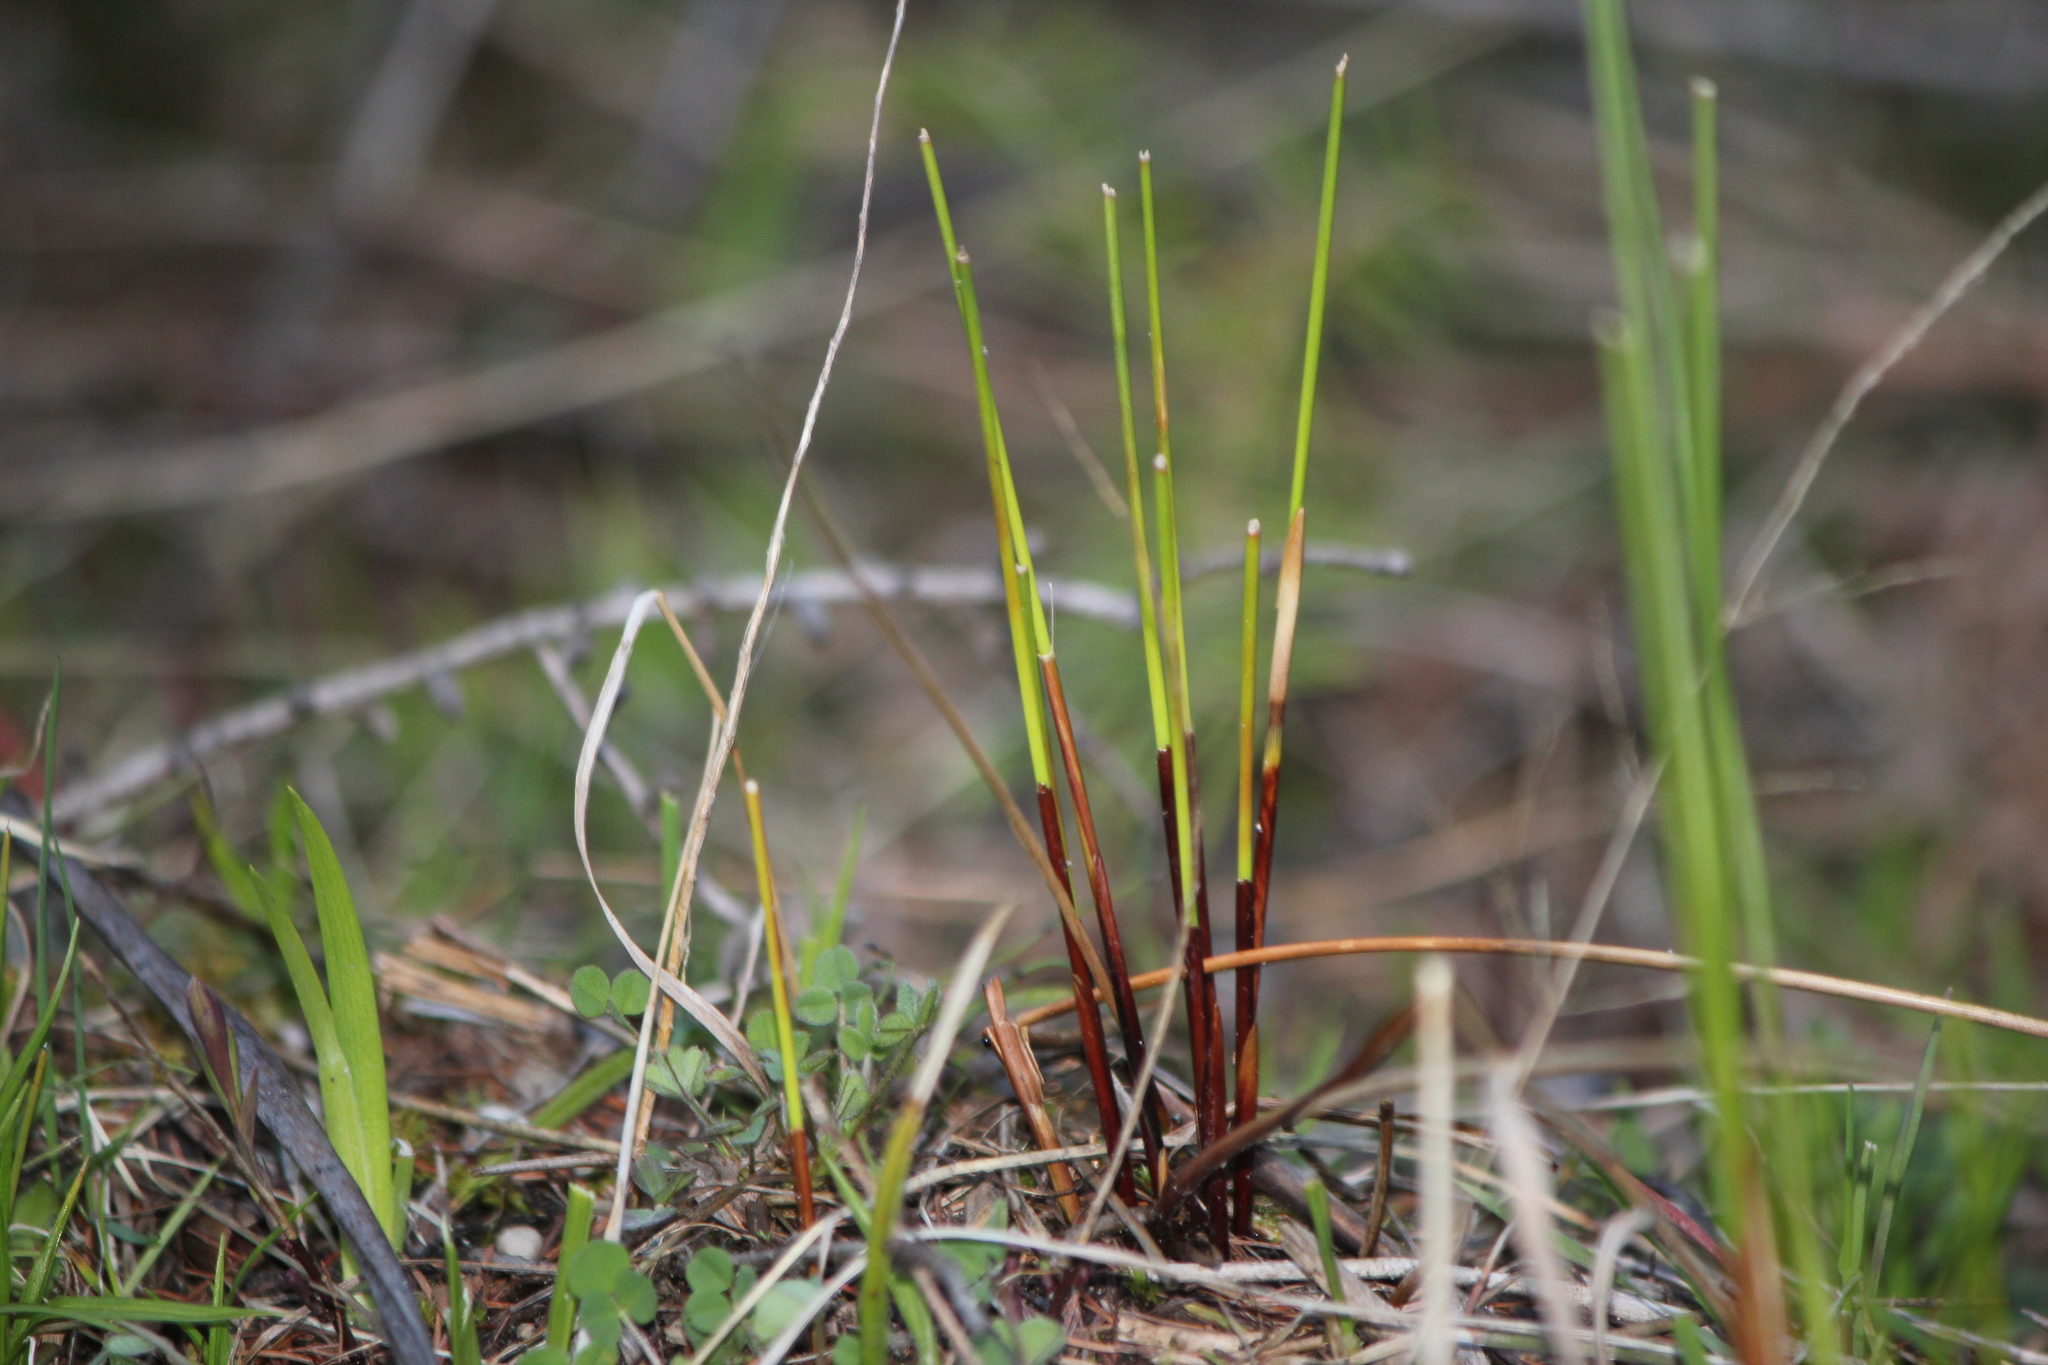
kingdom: Plantae
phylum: Tracheophyta
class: Liliopsida
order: Poales
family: Juncaceae
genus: Juncus
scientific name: Juncus balticus
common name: Baltic rush
